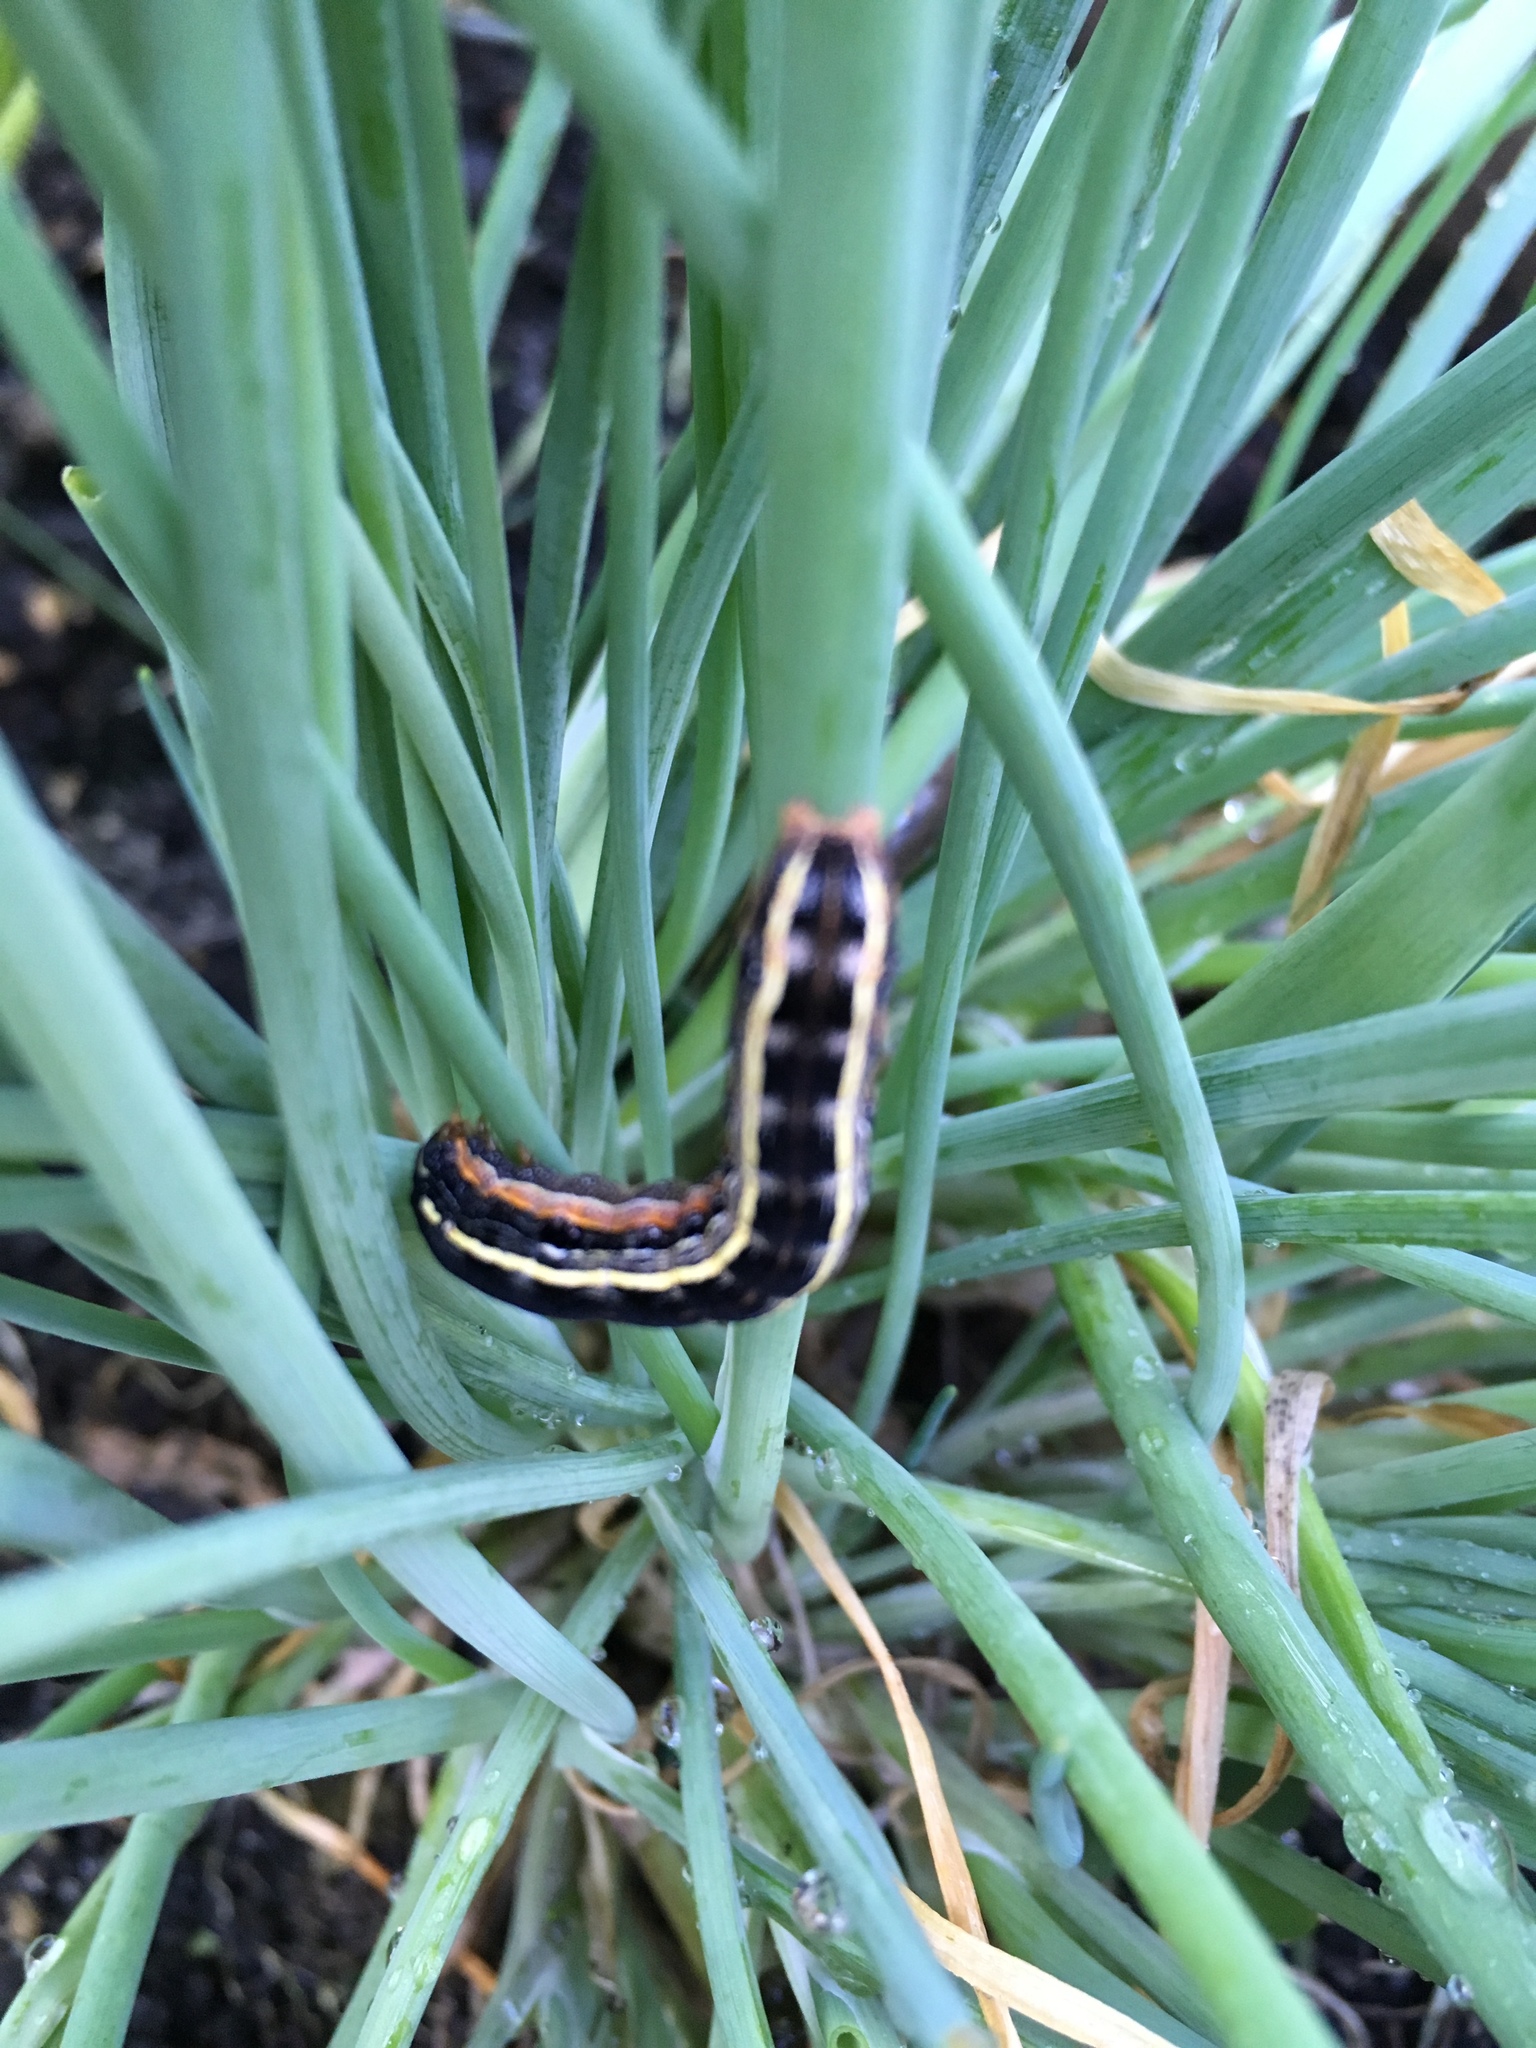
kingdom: Animalia
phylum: Arthropoda
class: Insecta
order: Lepidoptera
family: Noctuidae
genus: Spodoptera
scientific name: Spodoptera ornithogalli
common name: Yellow-striped armyworm
